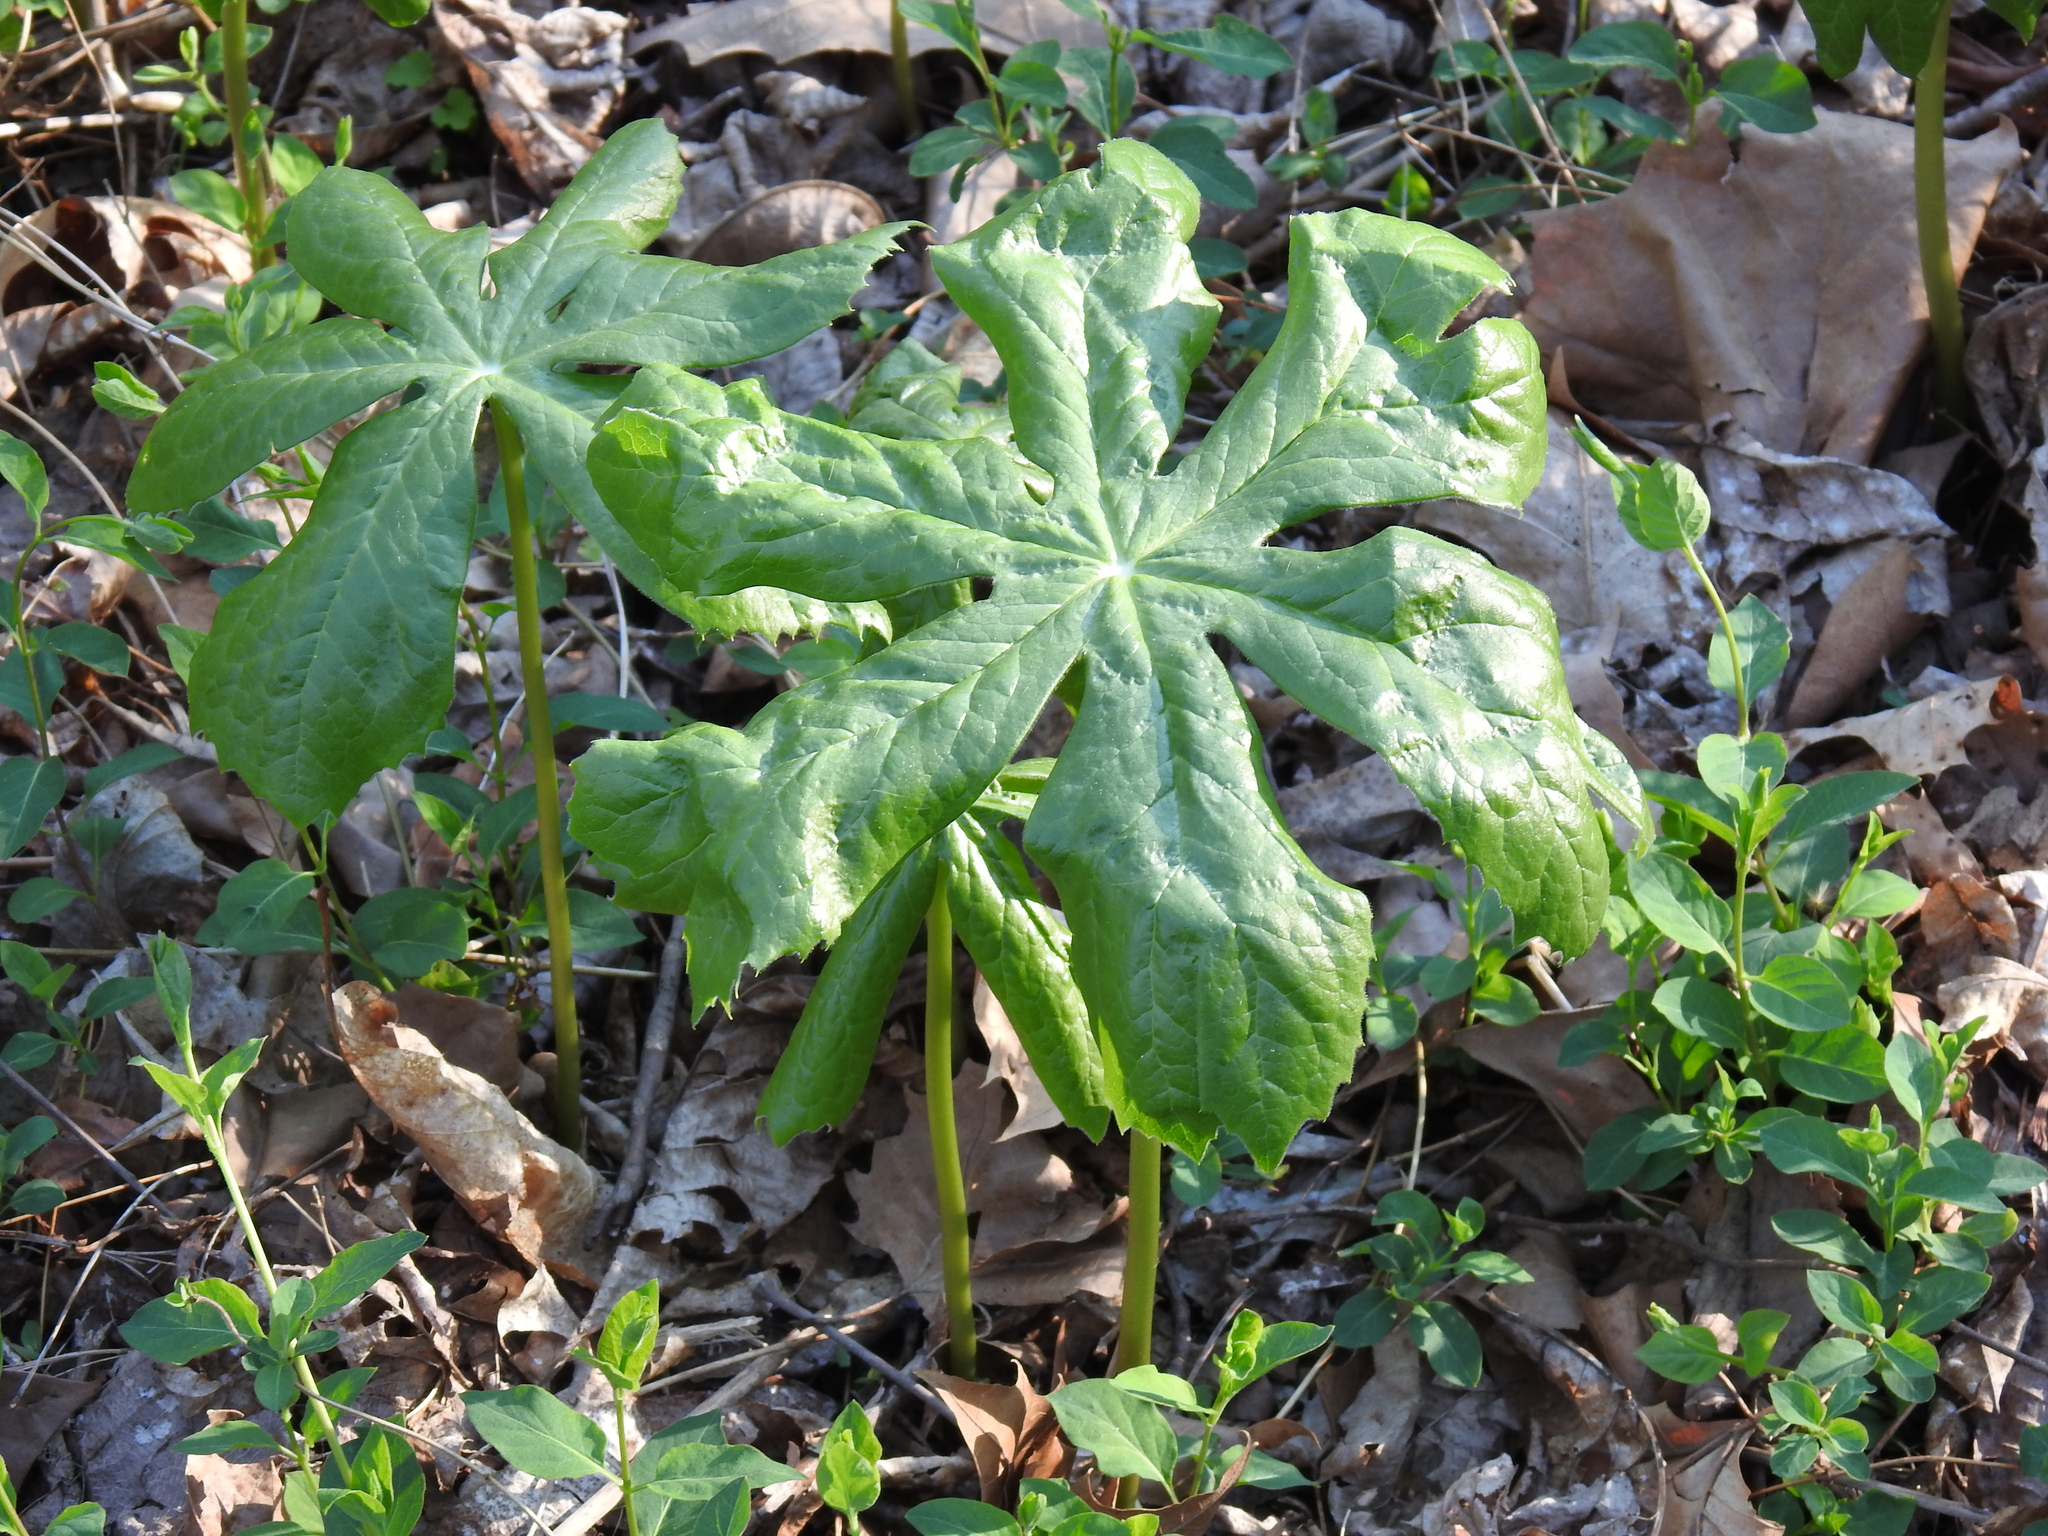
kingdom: Plantae
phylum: Tracheophyta
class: Magnoliopsida
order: Ranunculales
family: Berberidaceae
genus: Podophyllum
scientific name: Podophyllum peltatum
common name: Wild mandrake
